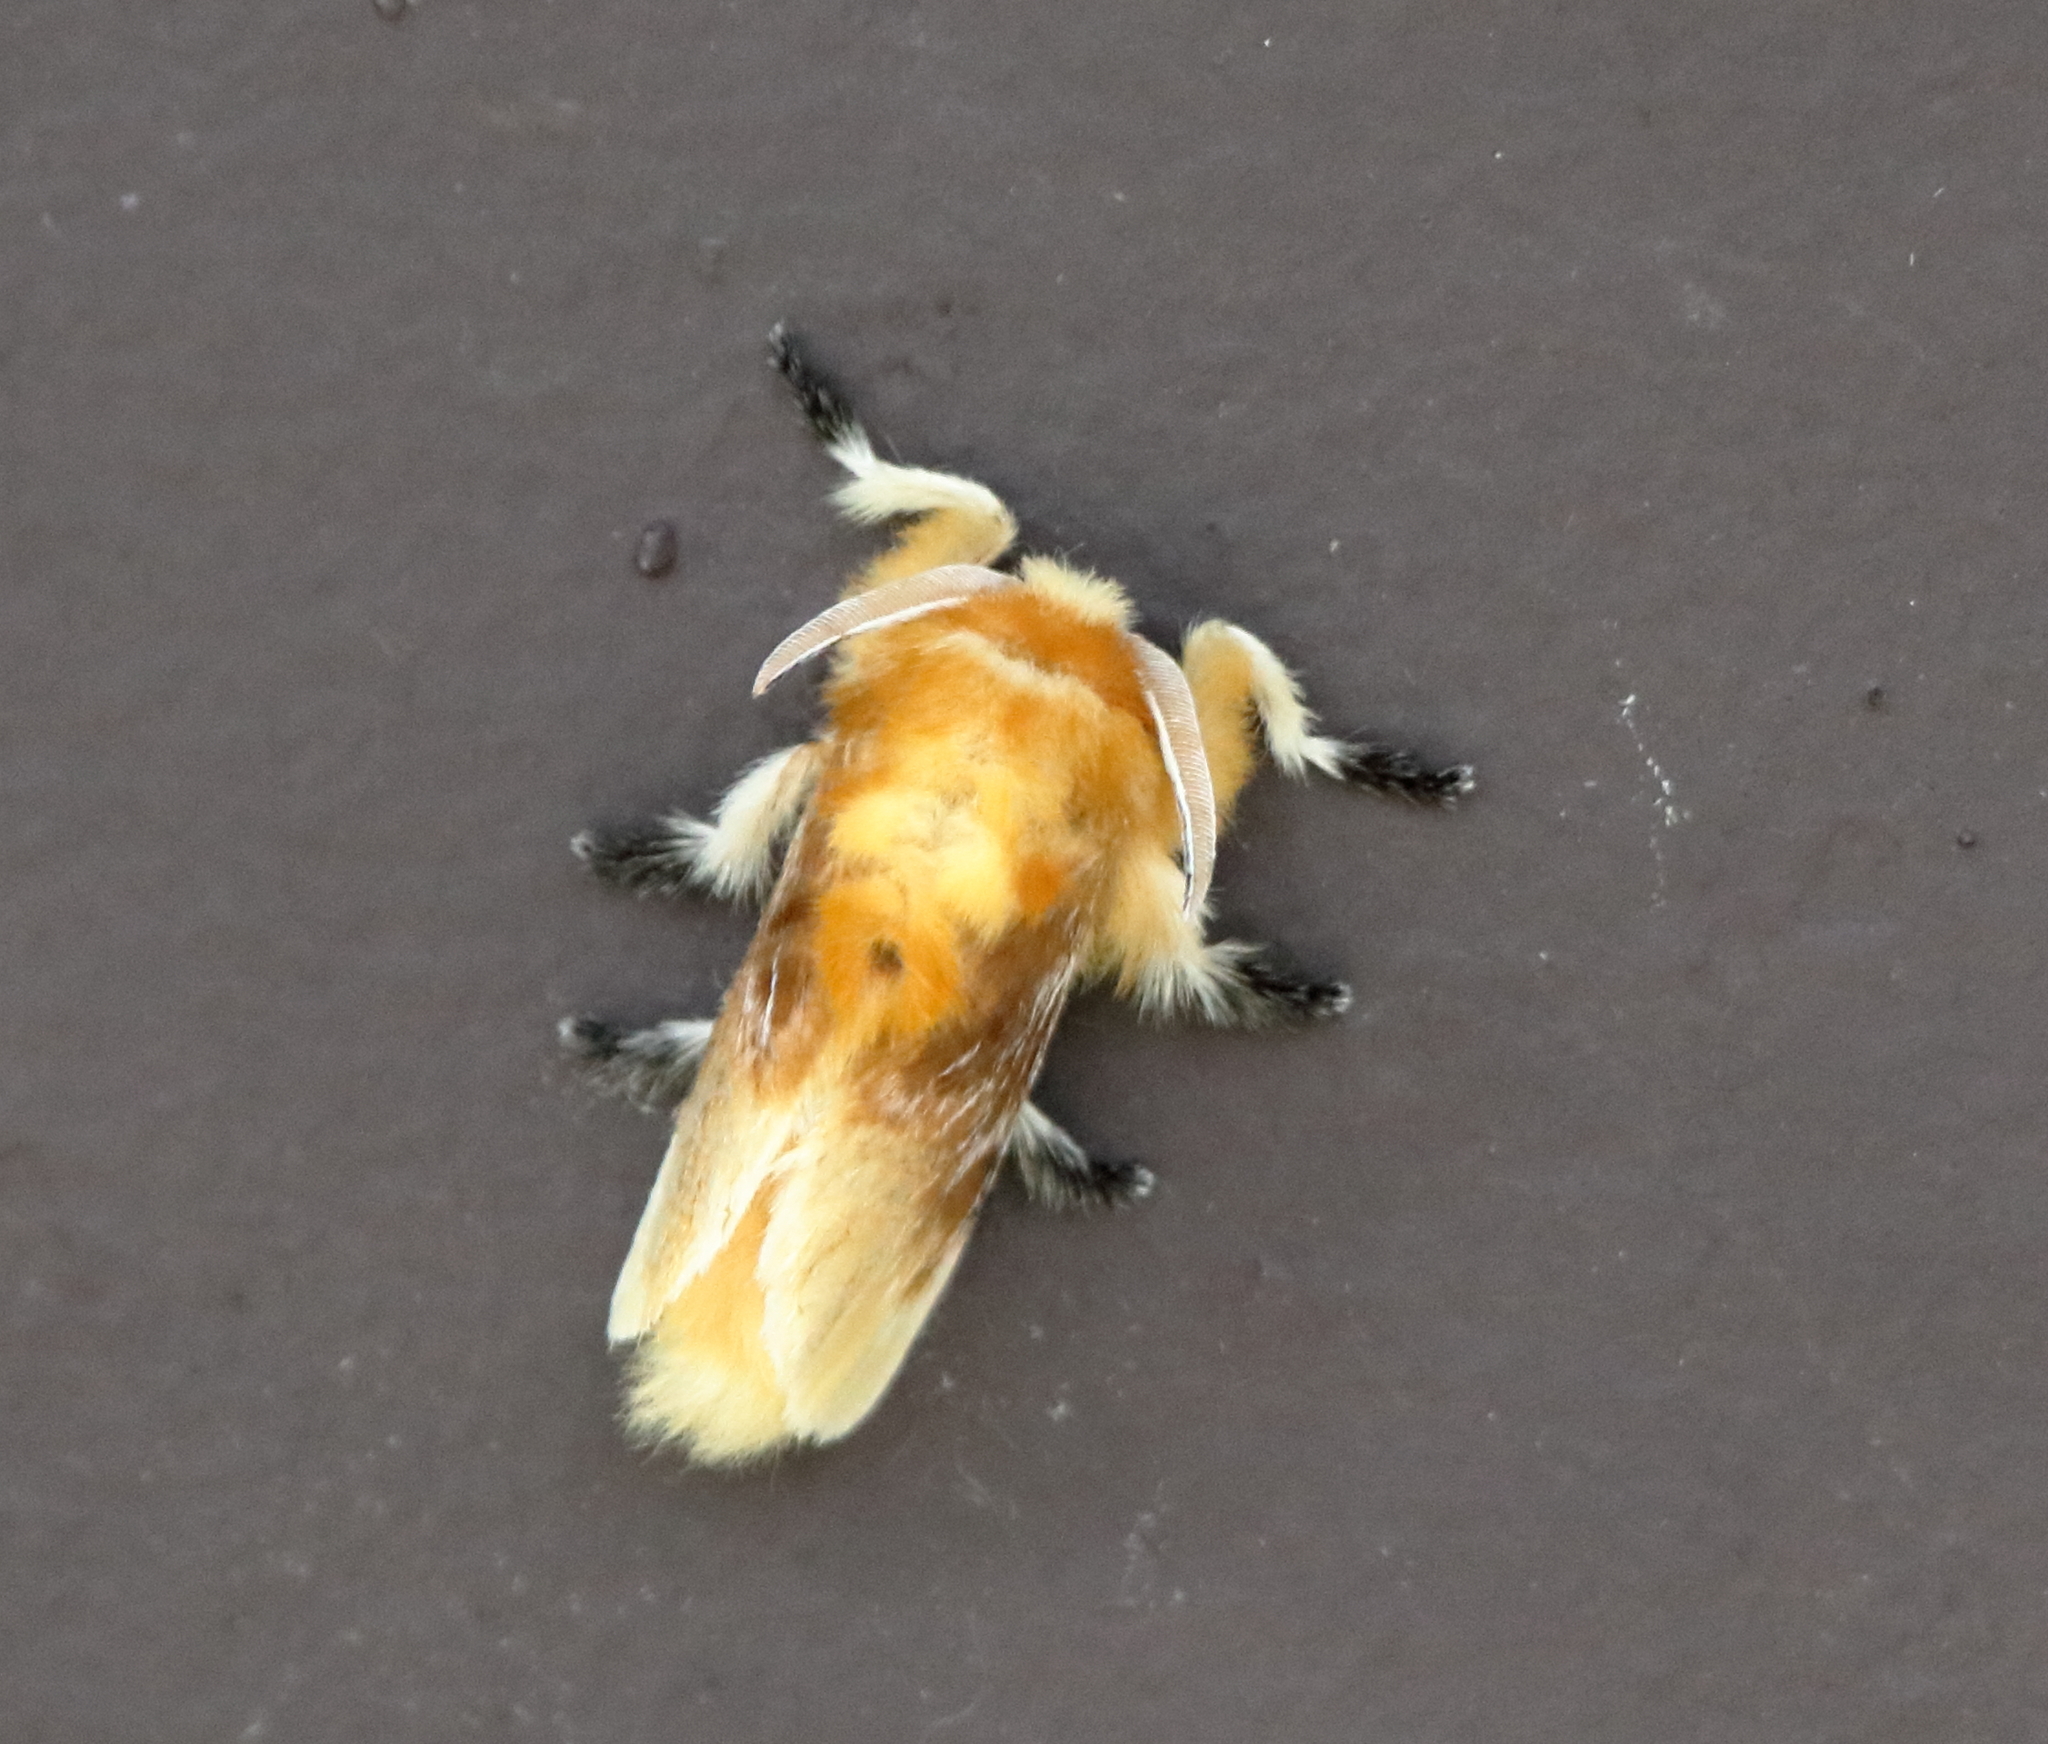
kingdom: Animalia
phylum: Arthropoda
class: Insecta
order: Lepidoptera
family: Megalopygidae
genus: Megalopyge
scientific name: Megalopyge opercularis
